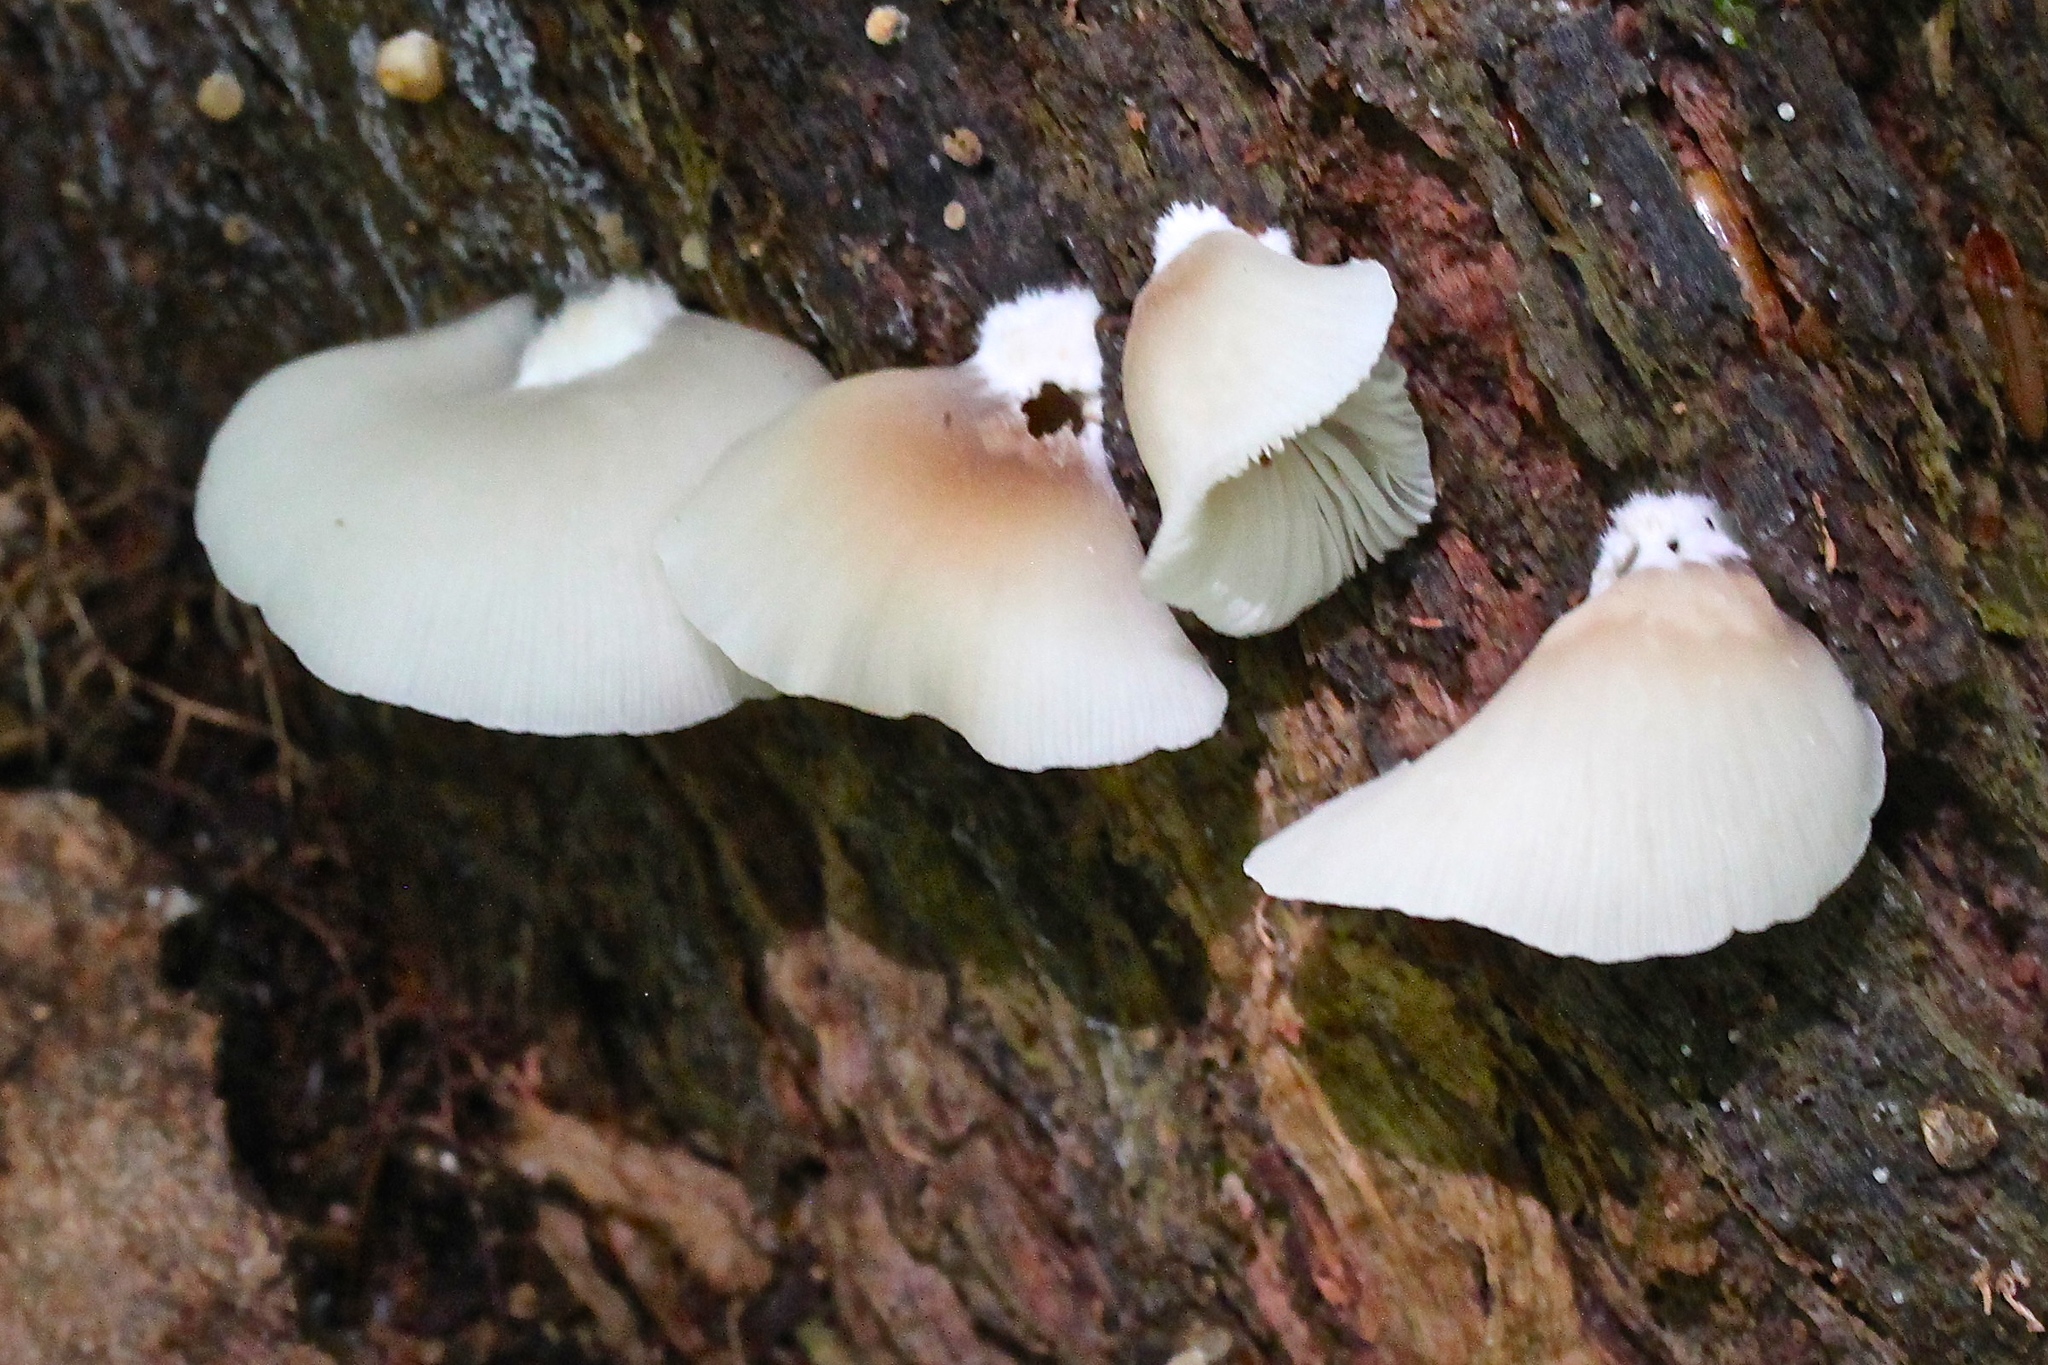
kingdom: Fungi
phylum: Basidiomycota
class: Agaricomycetes
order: Agaricales
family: Crepidotaceae
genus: Crepidotus
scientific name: Crepidotus applanatus
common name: Flat crep
